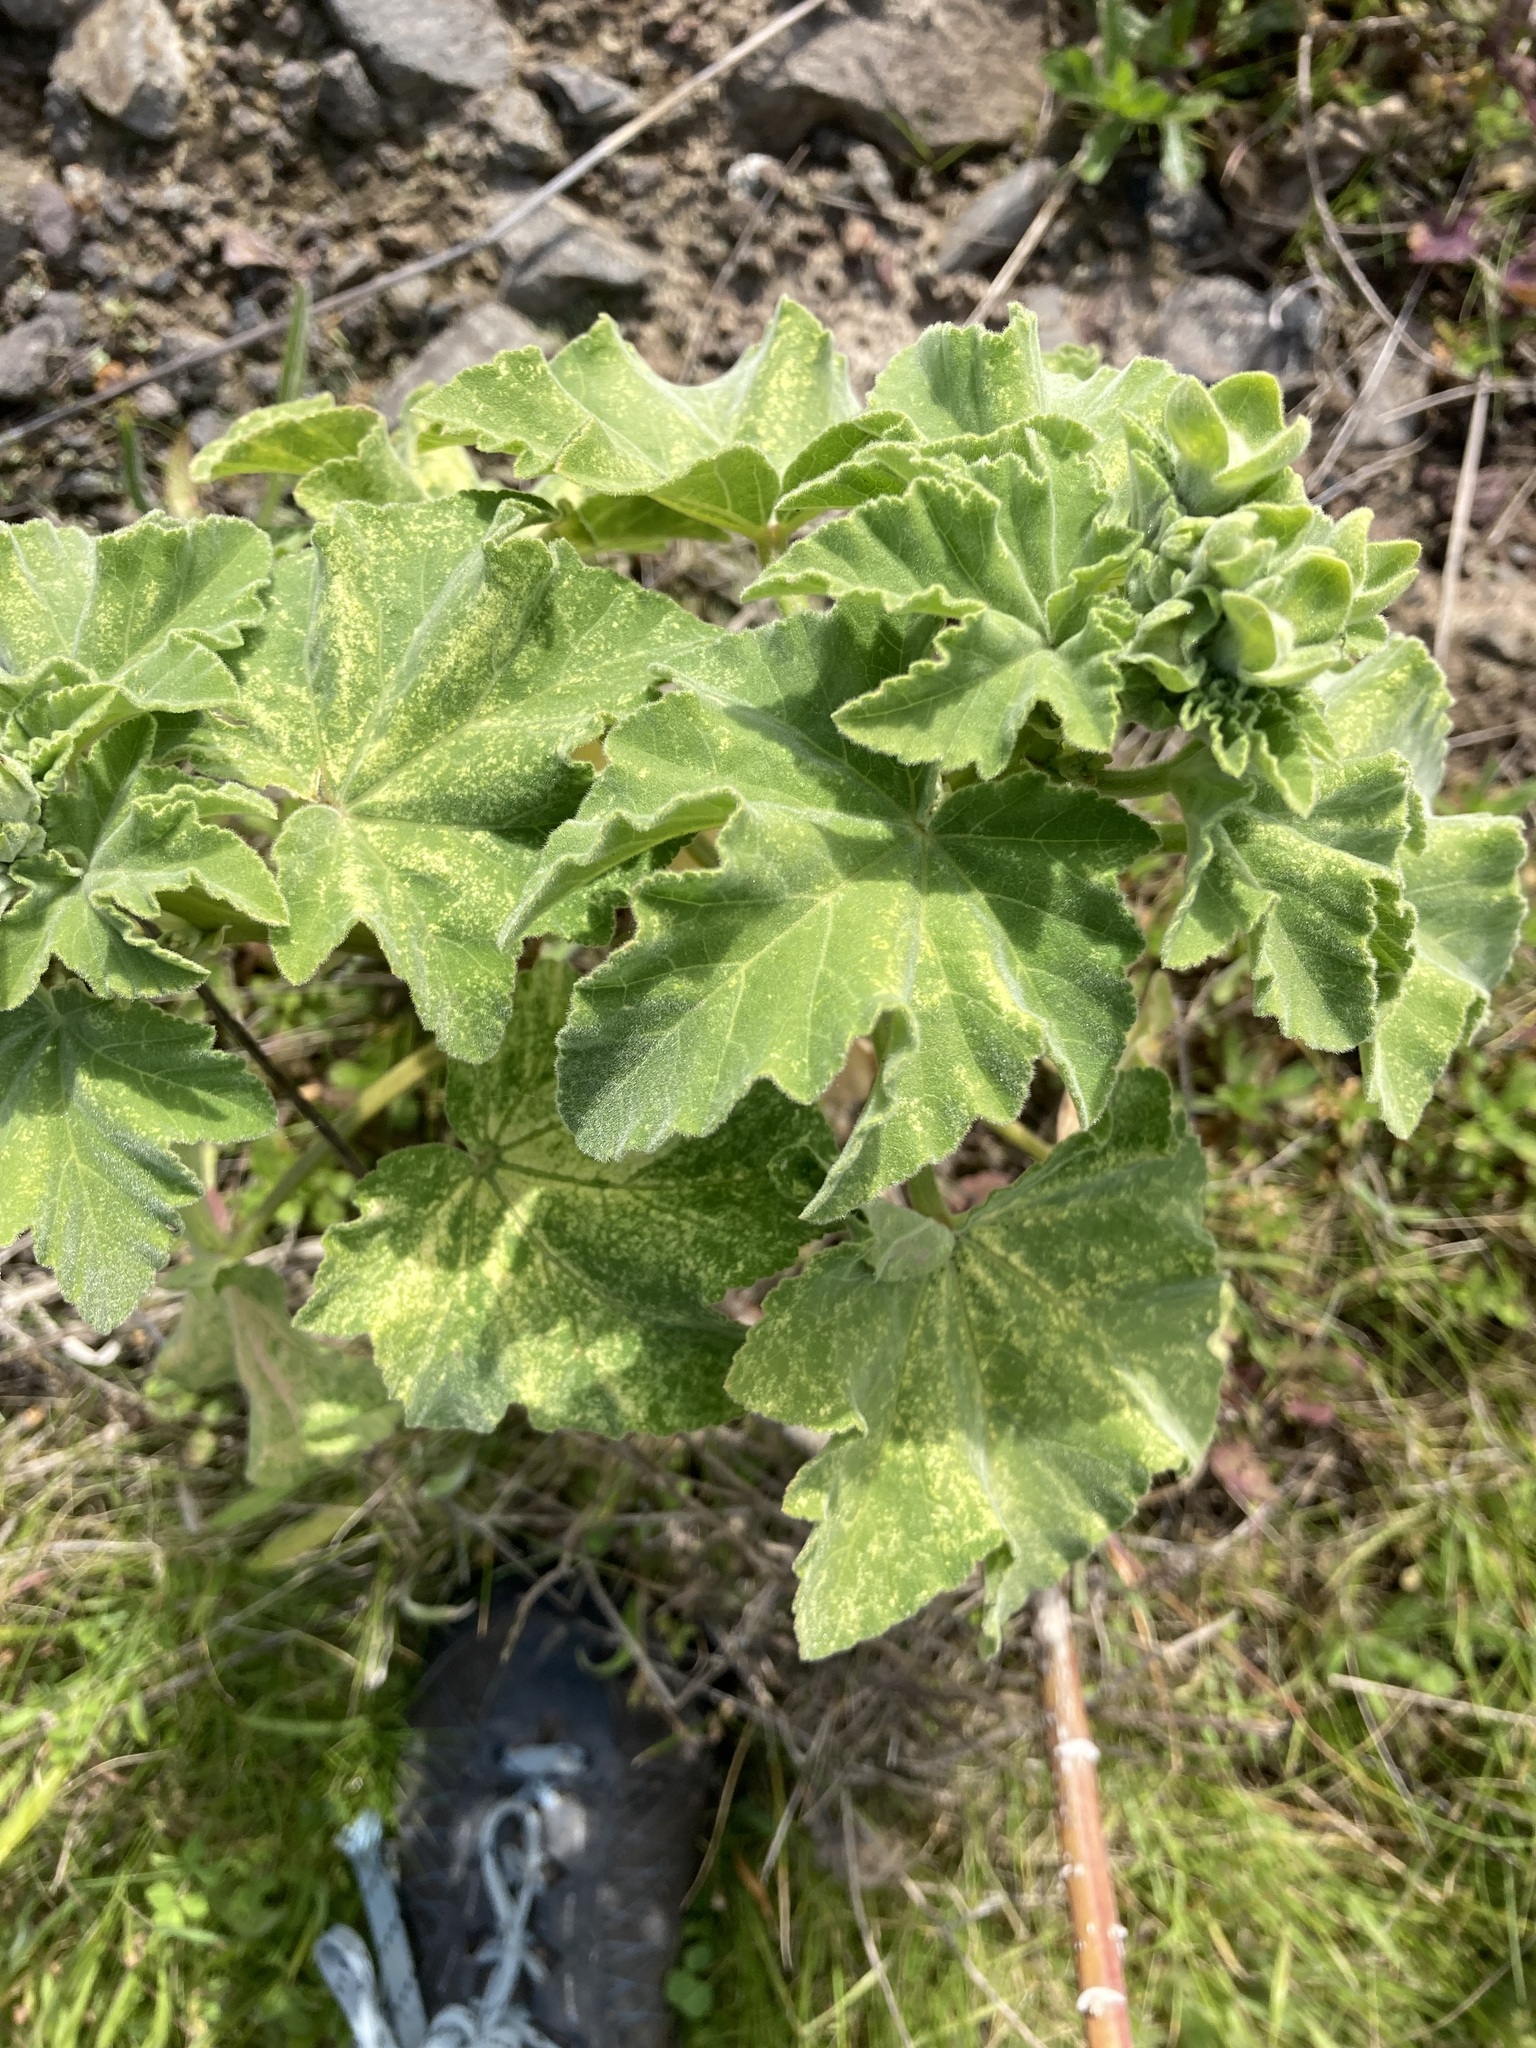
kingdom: Plantae
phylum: Tracheophyta
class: Magnoliopsida
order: Malvales
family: Malvaceae
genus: Malva
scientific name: Malva arborea
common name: Tree mallow
